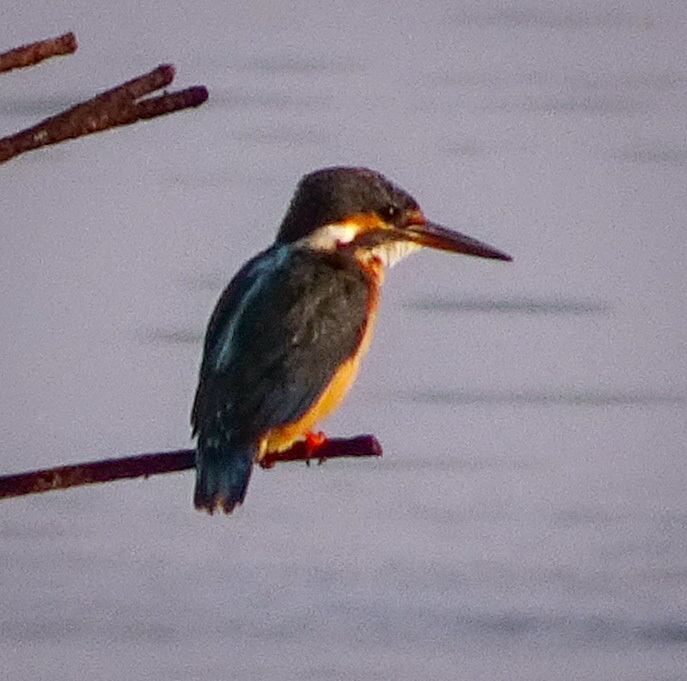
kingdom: Animalia
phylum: Chordata
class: Aves
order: Coraciiformes
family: Alcedinidae
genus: Alcedo
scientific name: Alcedo atthis
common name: Common kingfisher
